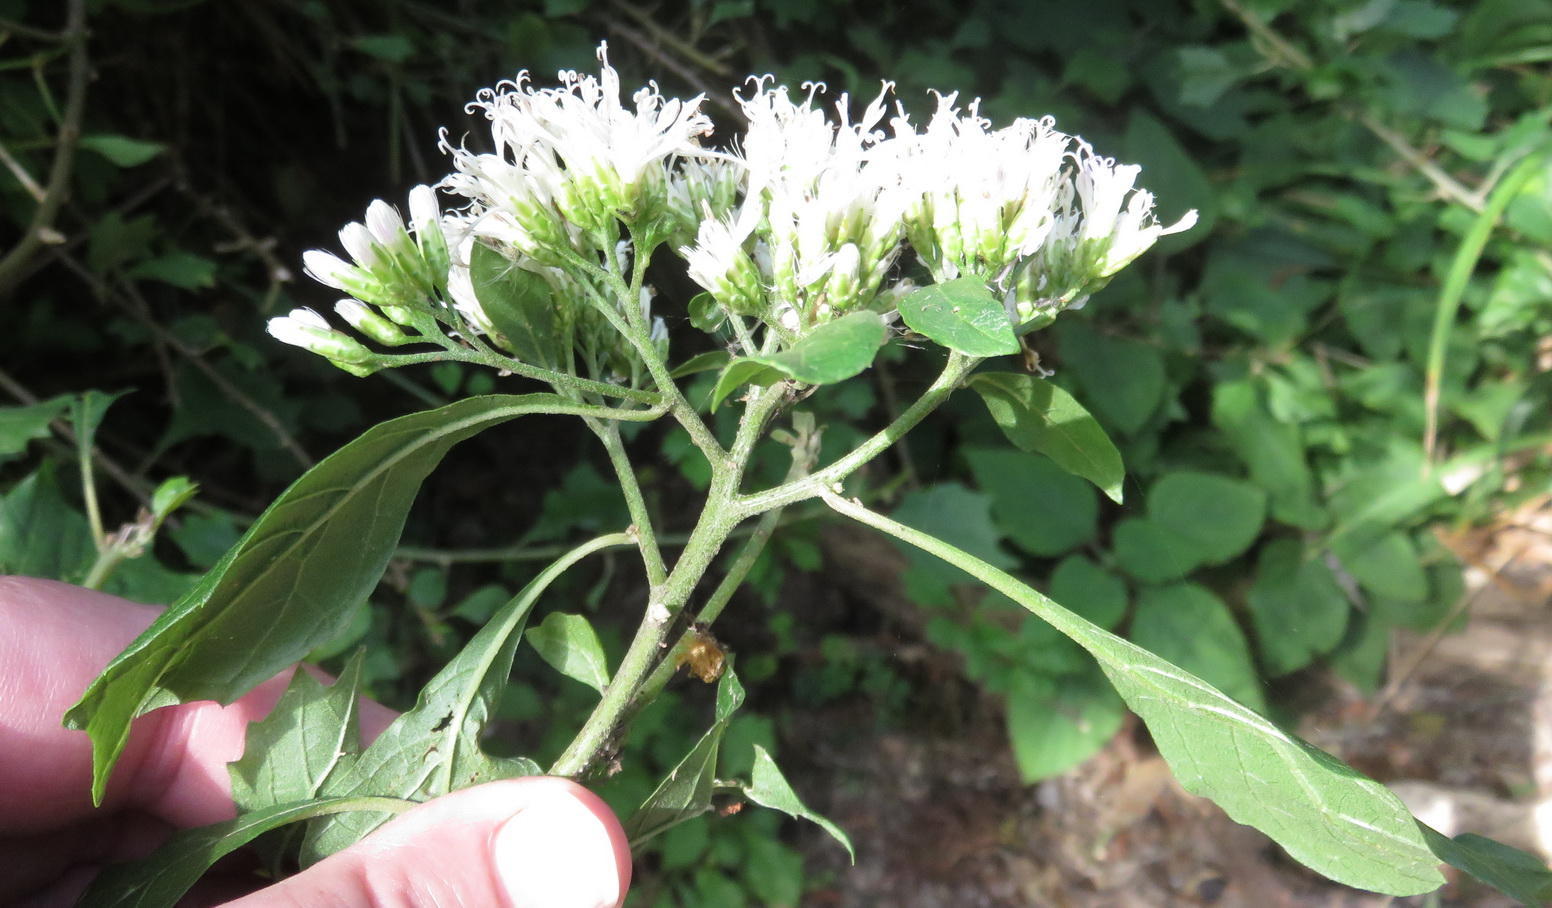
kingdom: Plantae
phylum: Tracheophyta
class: Magnoliopsida
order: Asterales
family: Asteraceae
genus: Gymnanthemum
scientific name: Gymnanthemum capense
